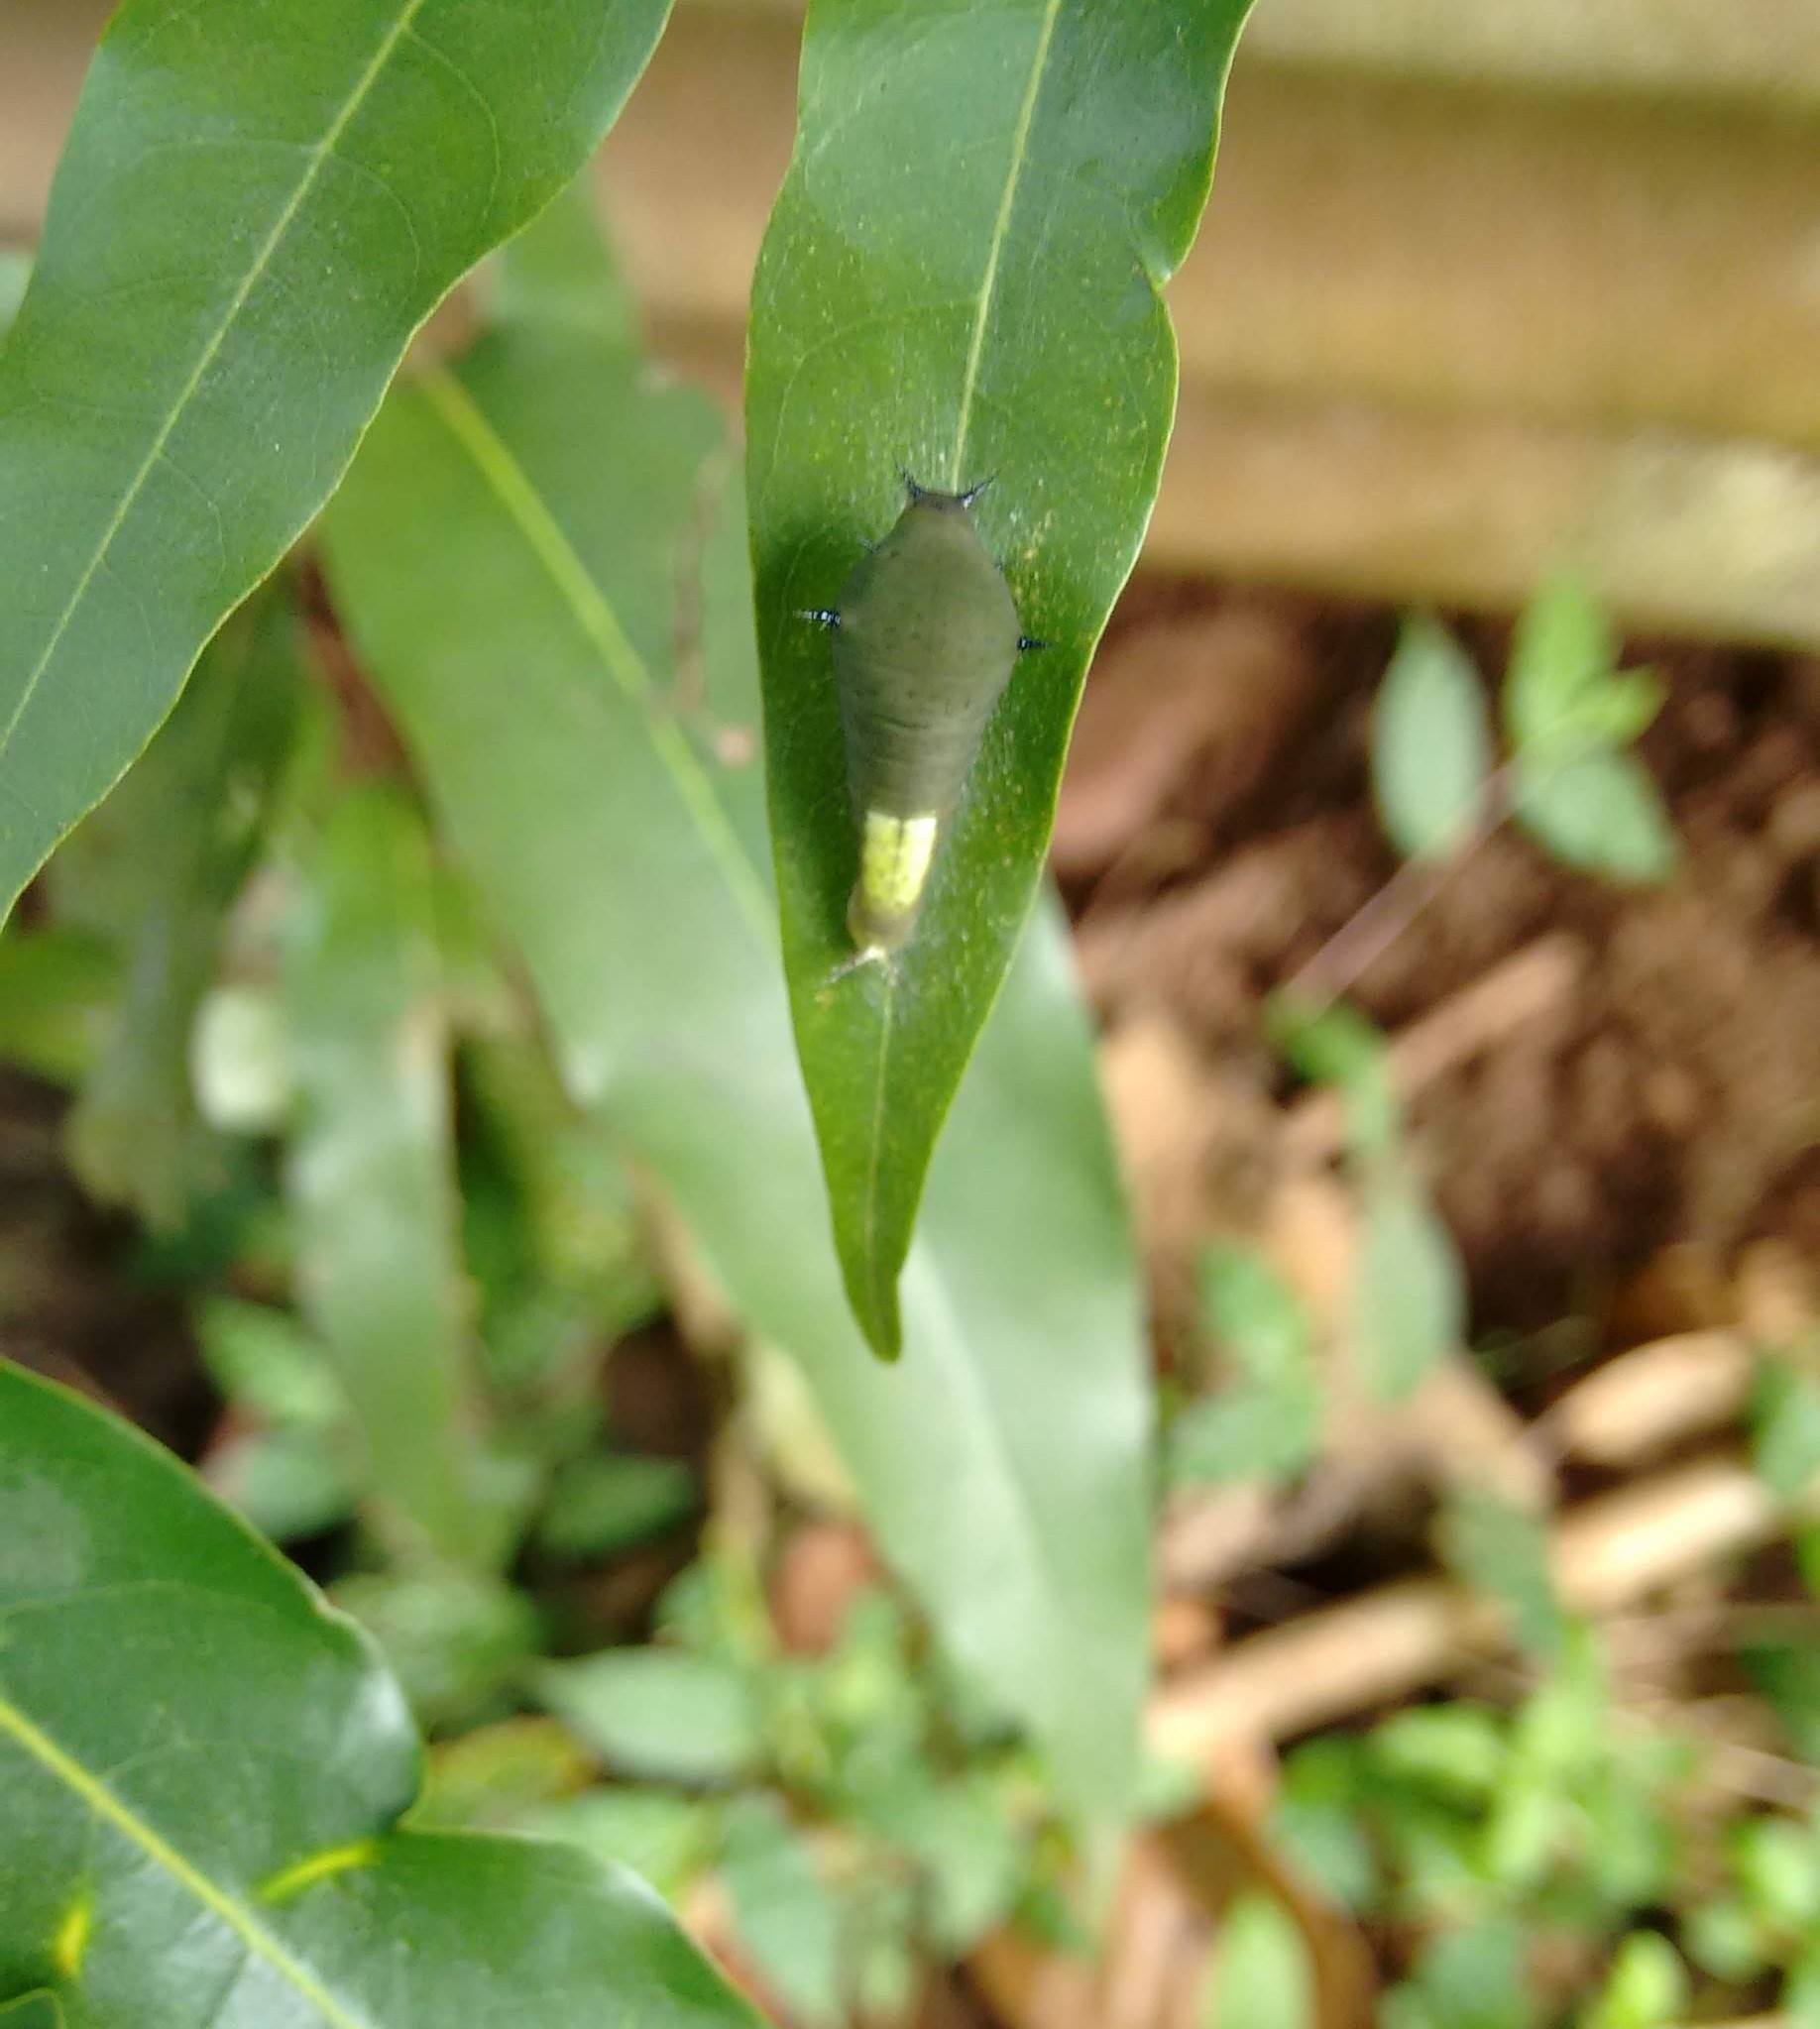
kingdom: Animalia
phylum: Arthropoda
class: Insecta
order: Lepidoptera
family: Papilionidae
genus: Graphium
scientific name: Graphium agamemnon
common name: Tailed jay
